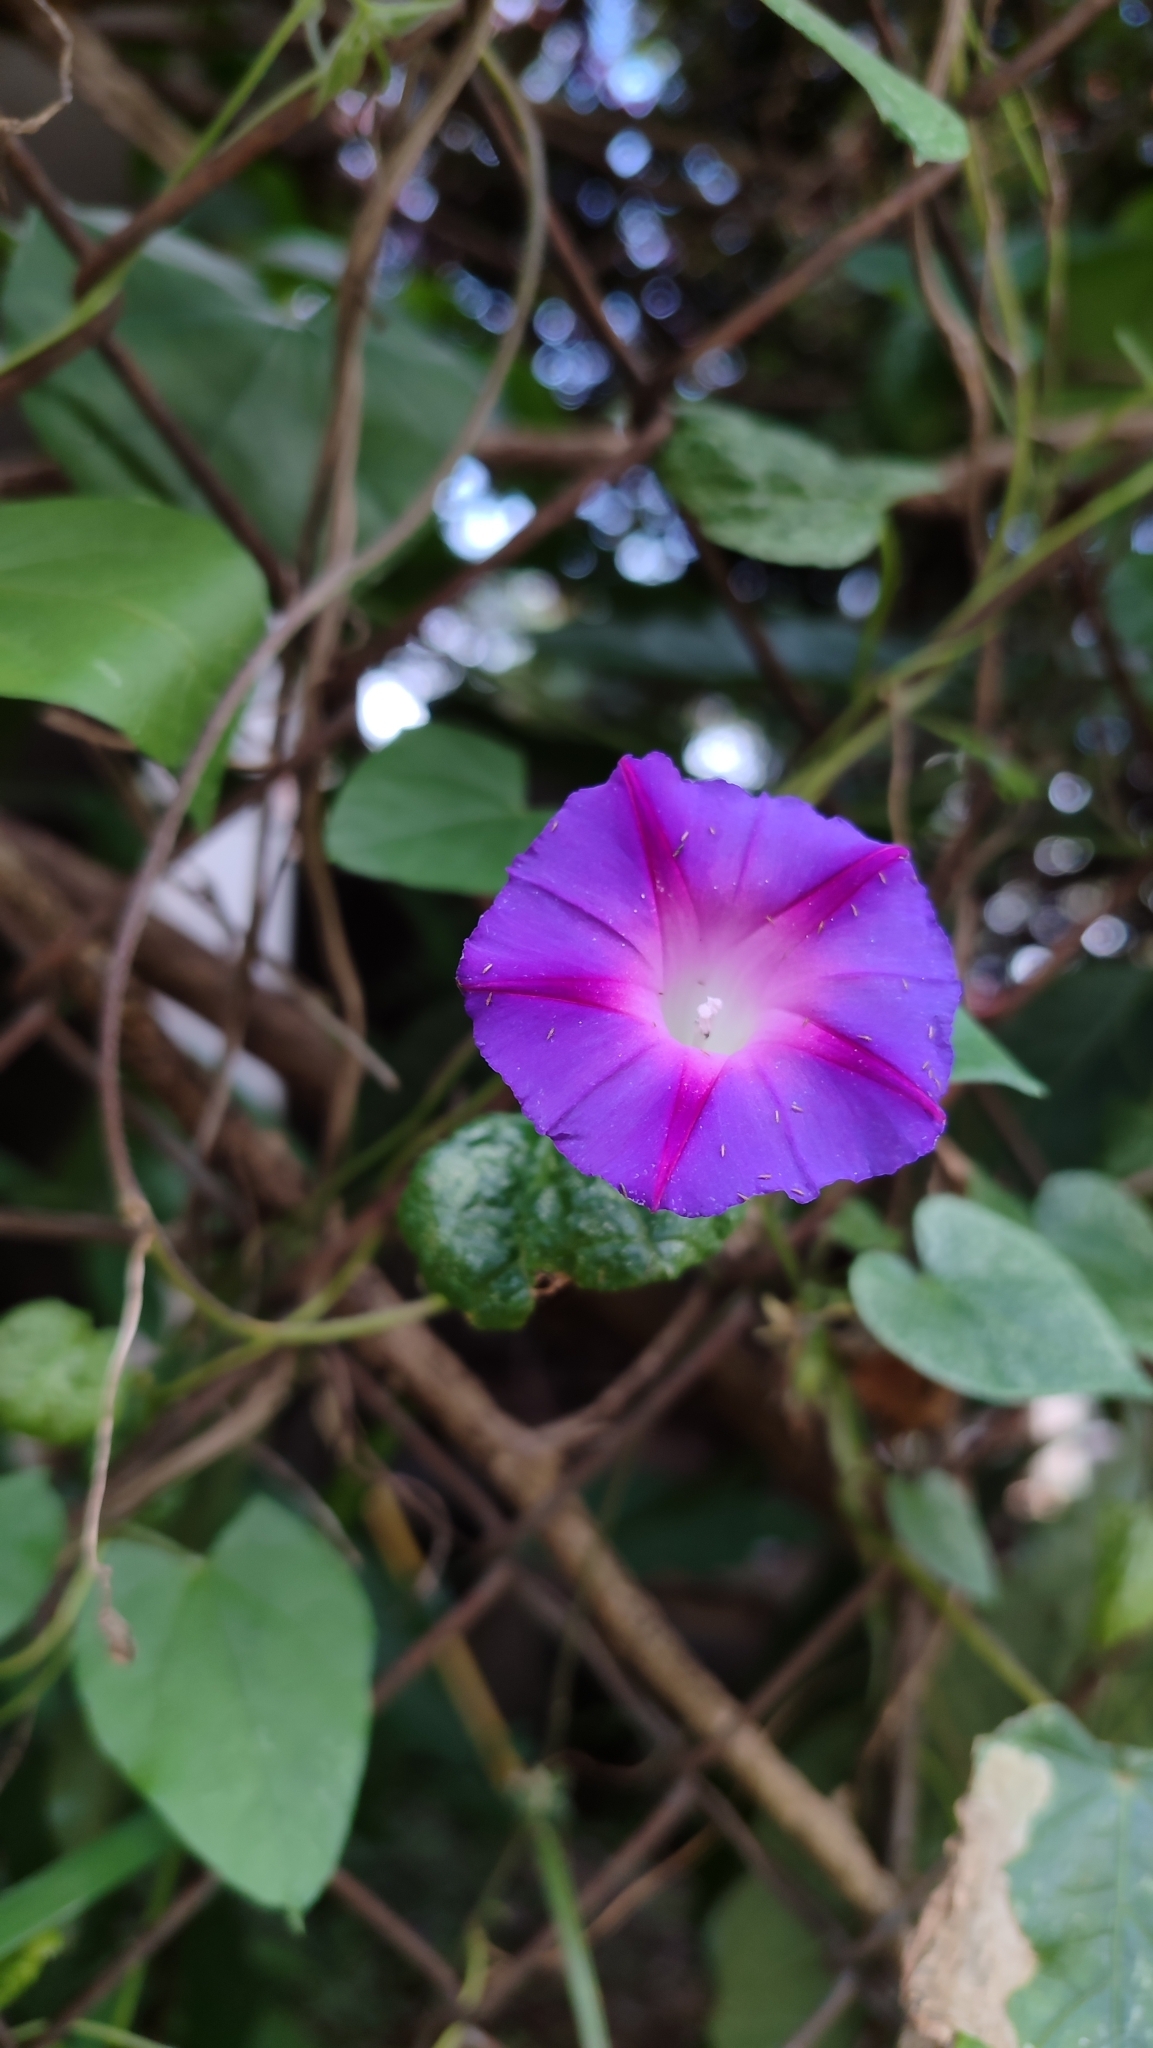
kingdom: Plantae
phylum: Tracheophyta
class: Magnoliopsida
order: Solanales
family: Convolvulaceae
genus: Ipomoea
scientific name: Ipomoea purpurea
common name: Common morning-glory
